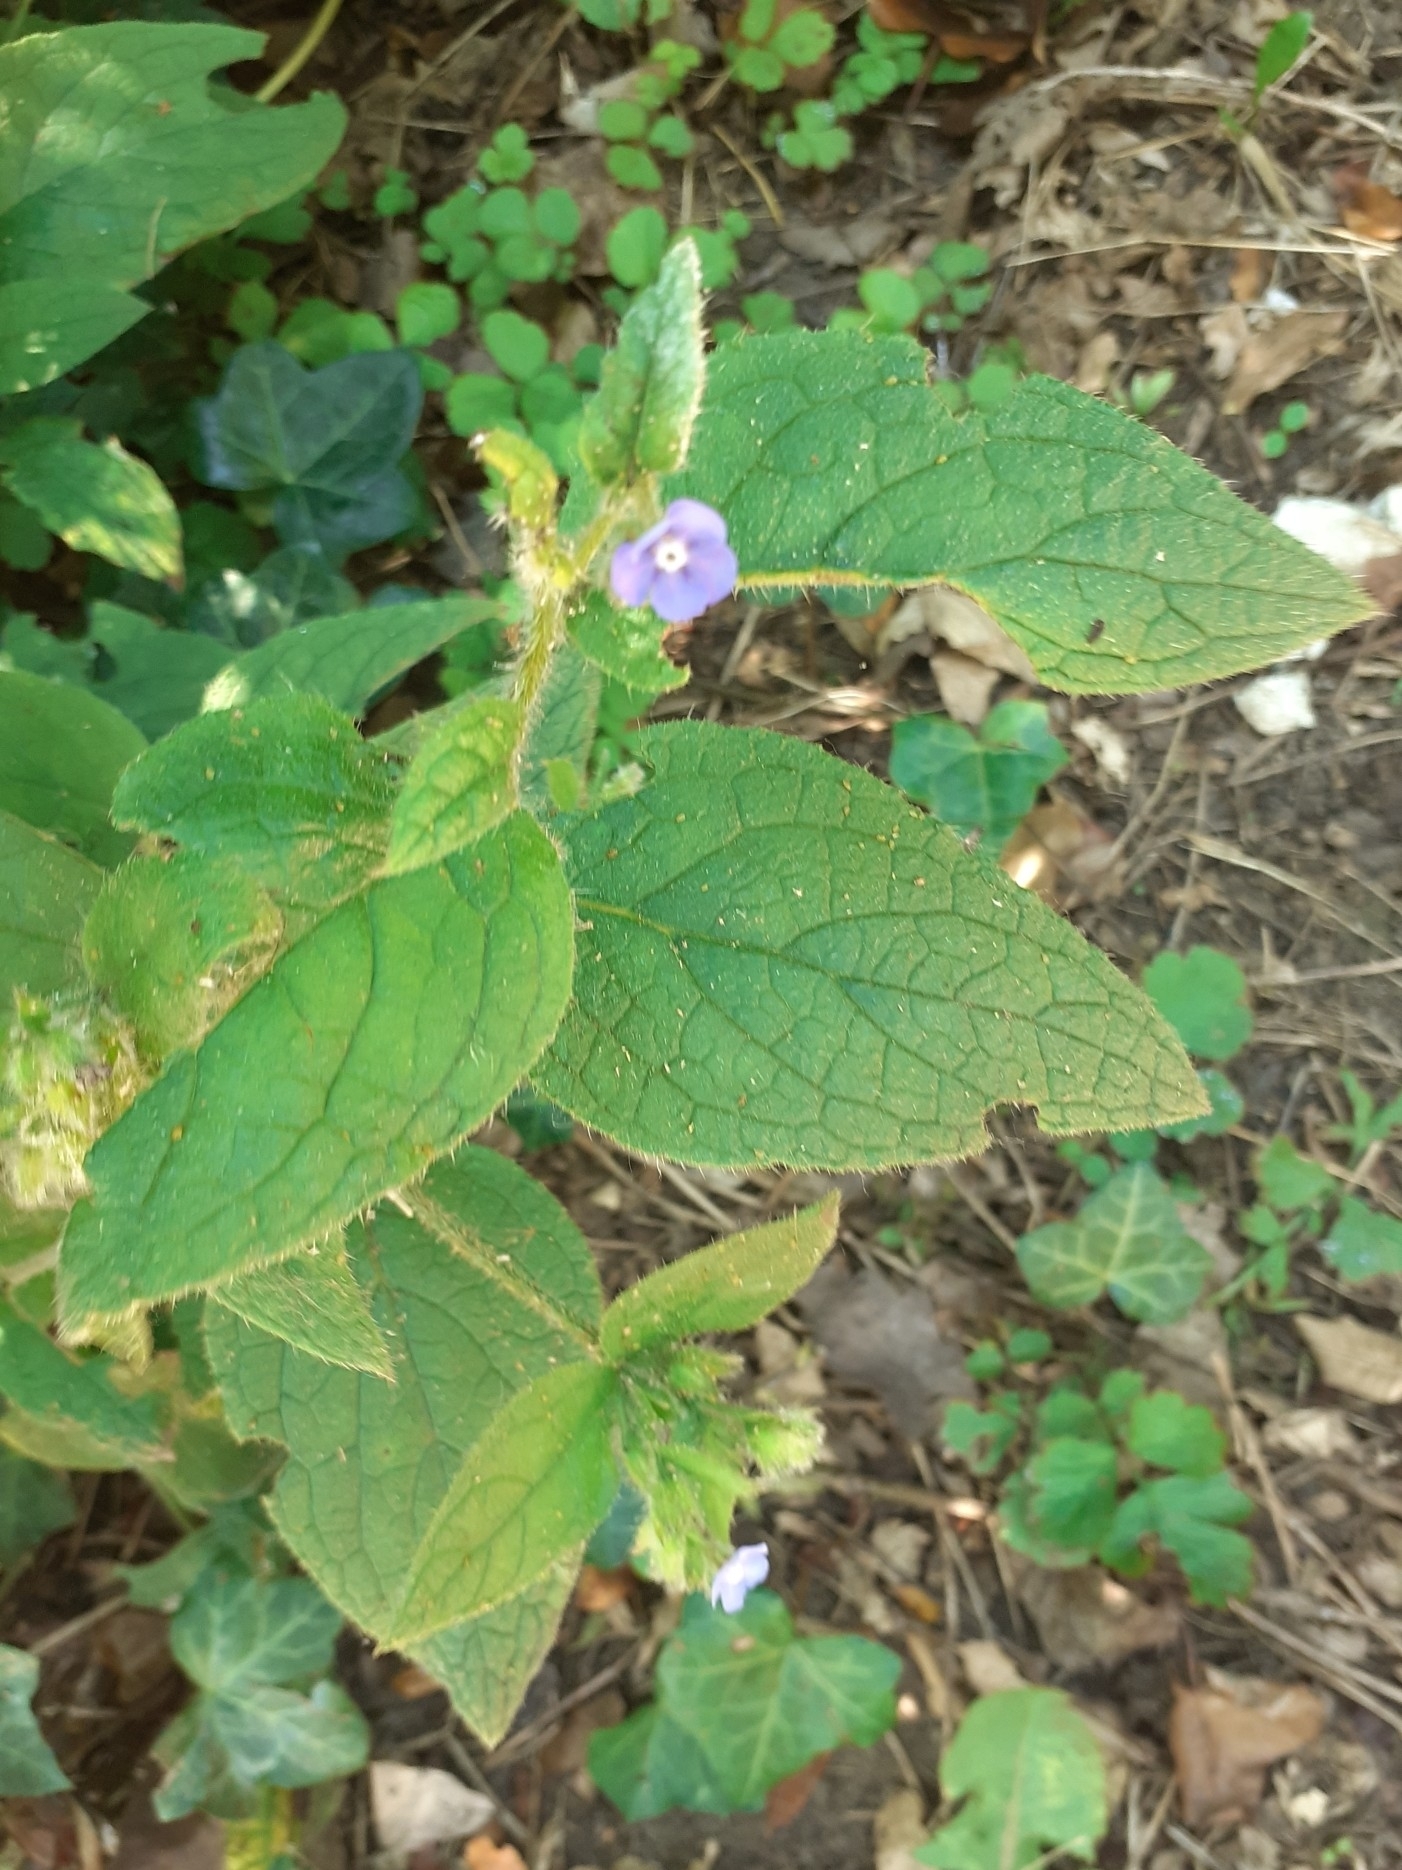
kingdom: Plantae
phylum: Tracheophyta
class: Magnoliopsida
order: Boraginales
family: Boraginaceae
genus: Pentaglottis
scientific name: Pentaglottis sempervirens
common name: Green alkanet
